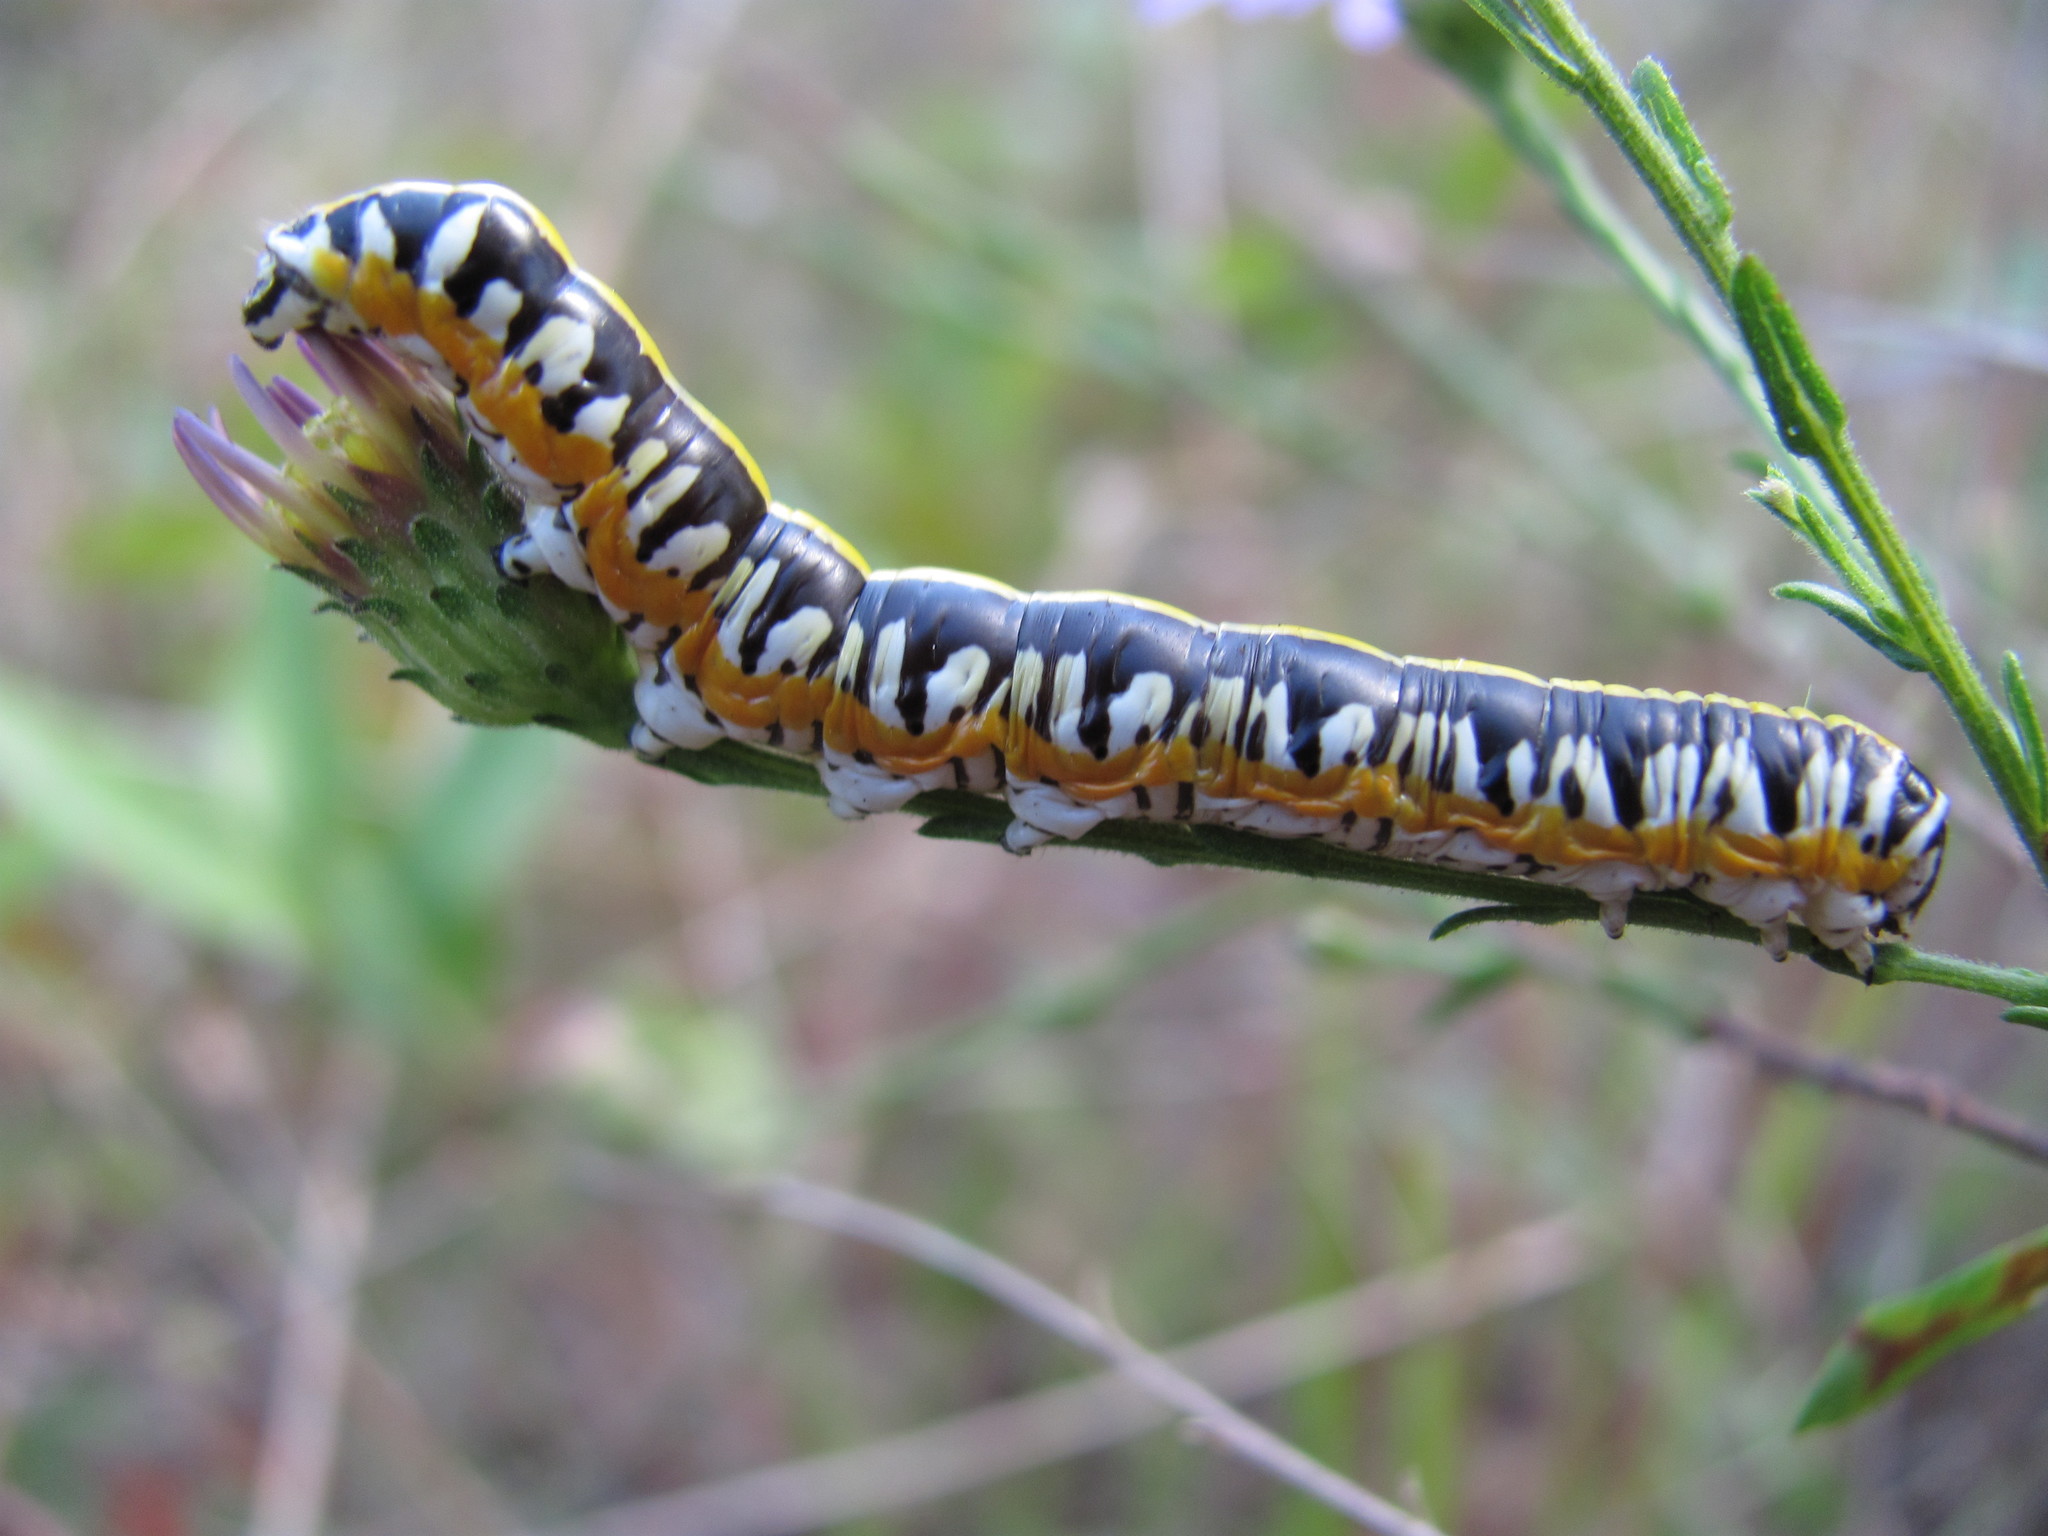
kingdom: Animalia
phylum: Arthropoda
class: Insecta
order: Lepidoptera
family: Noctuidae
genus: Cucullia
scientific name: Cucullia alfarata
